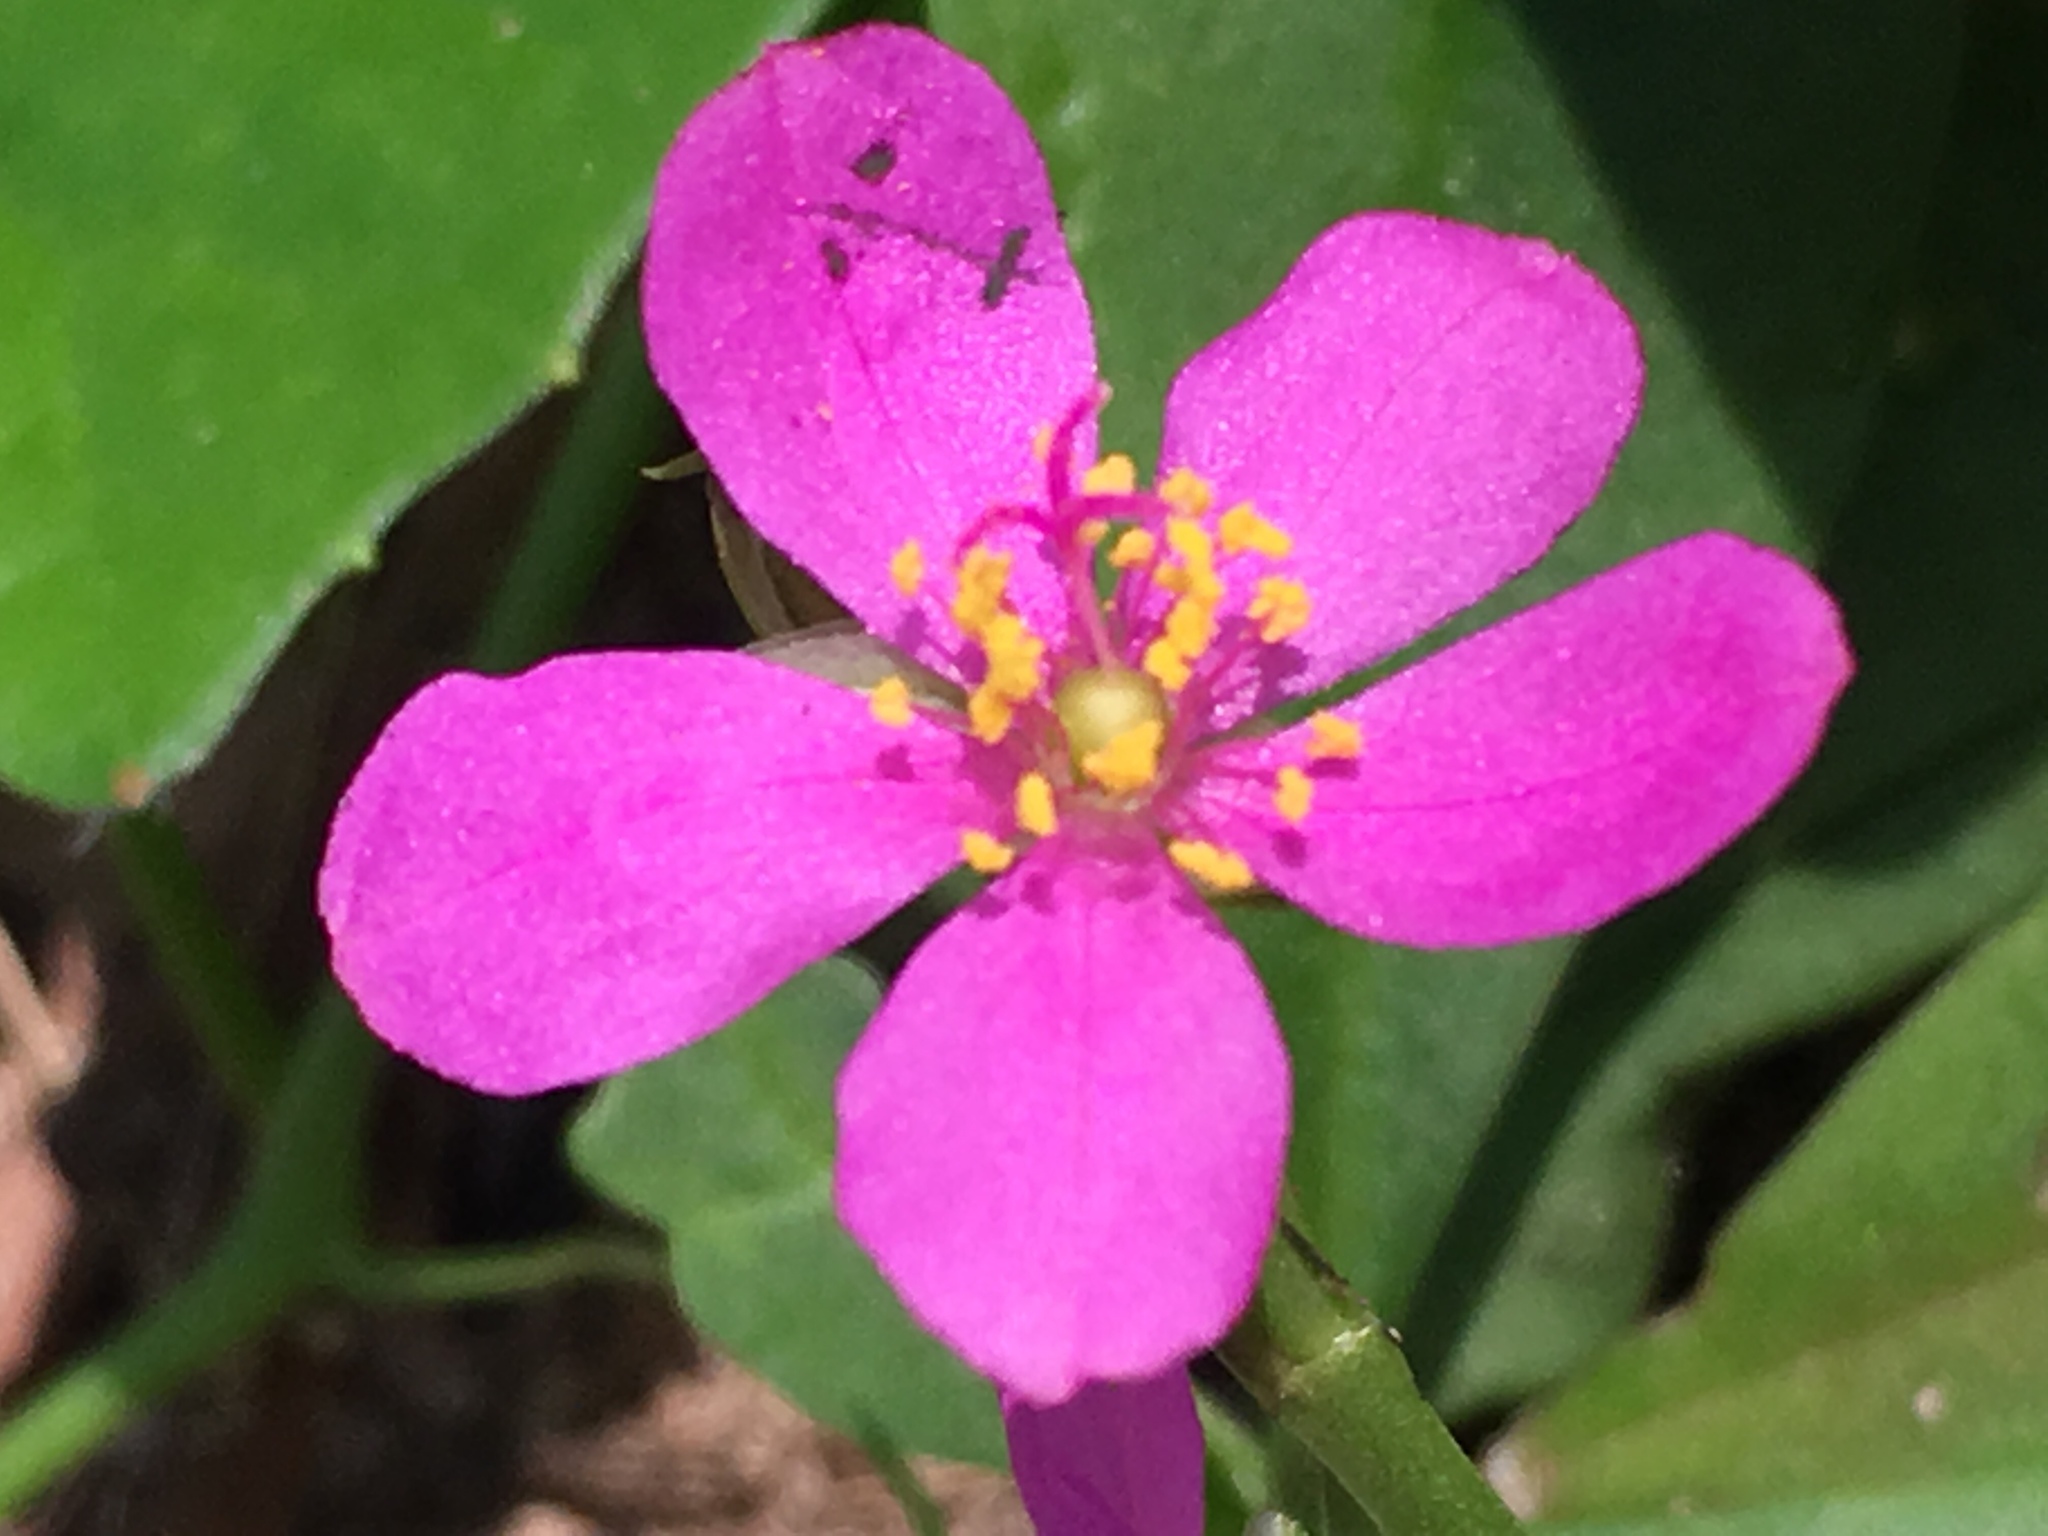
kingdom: Plantae
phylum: Tracheophyta
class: Magnoliopsida
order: Caryophyllales
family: Talinaceae
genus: Talinum
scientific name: Talinum fruticosum
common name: Verdolaga-francesa
